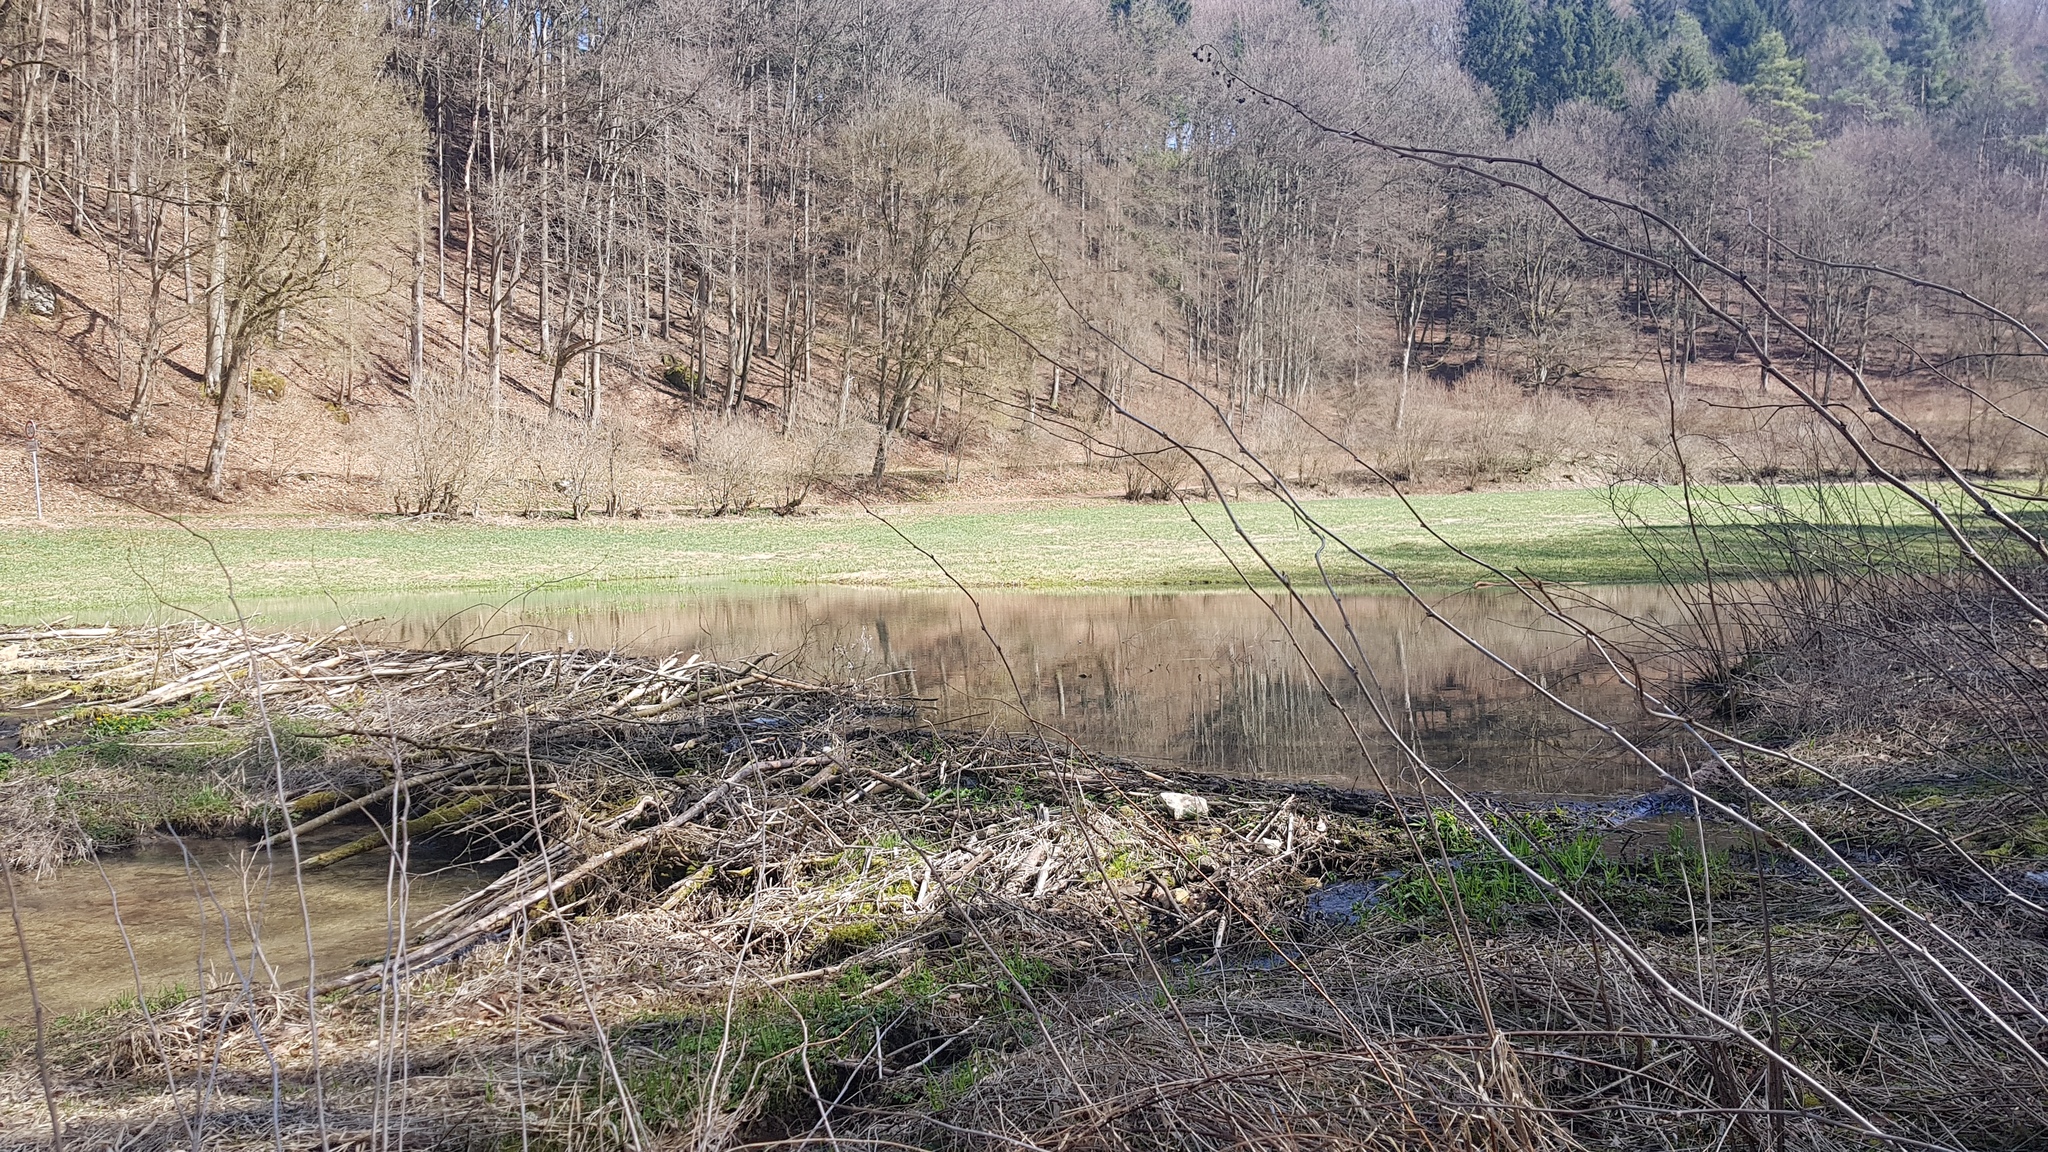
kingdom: Animalia
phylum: Chordata
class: Mammalia
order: Rodentia
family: Castoridae
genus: Castor
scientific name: Castor fiber
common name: Eurasian beaver
